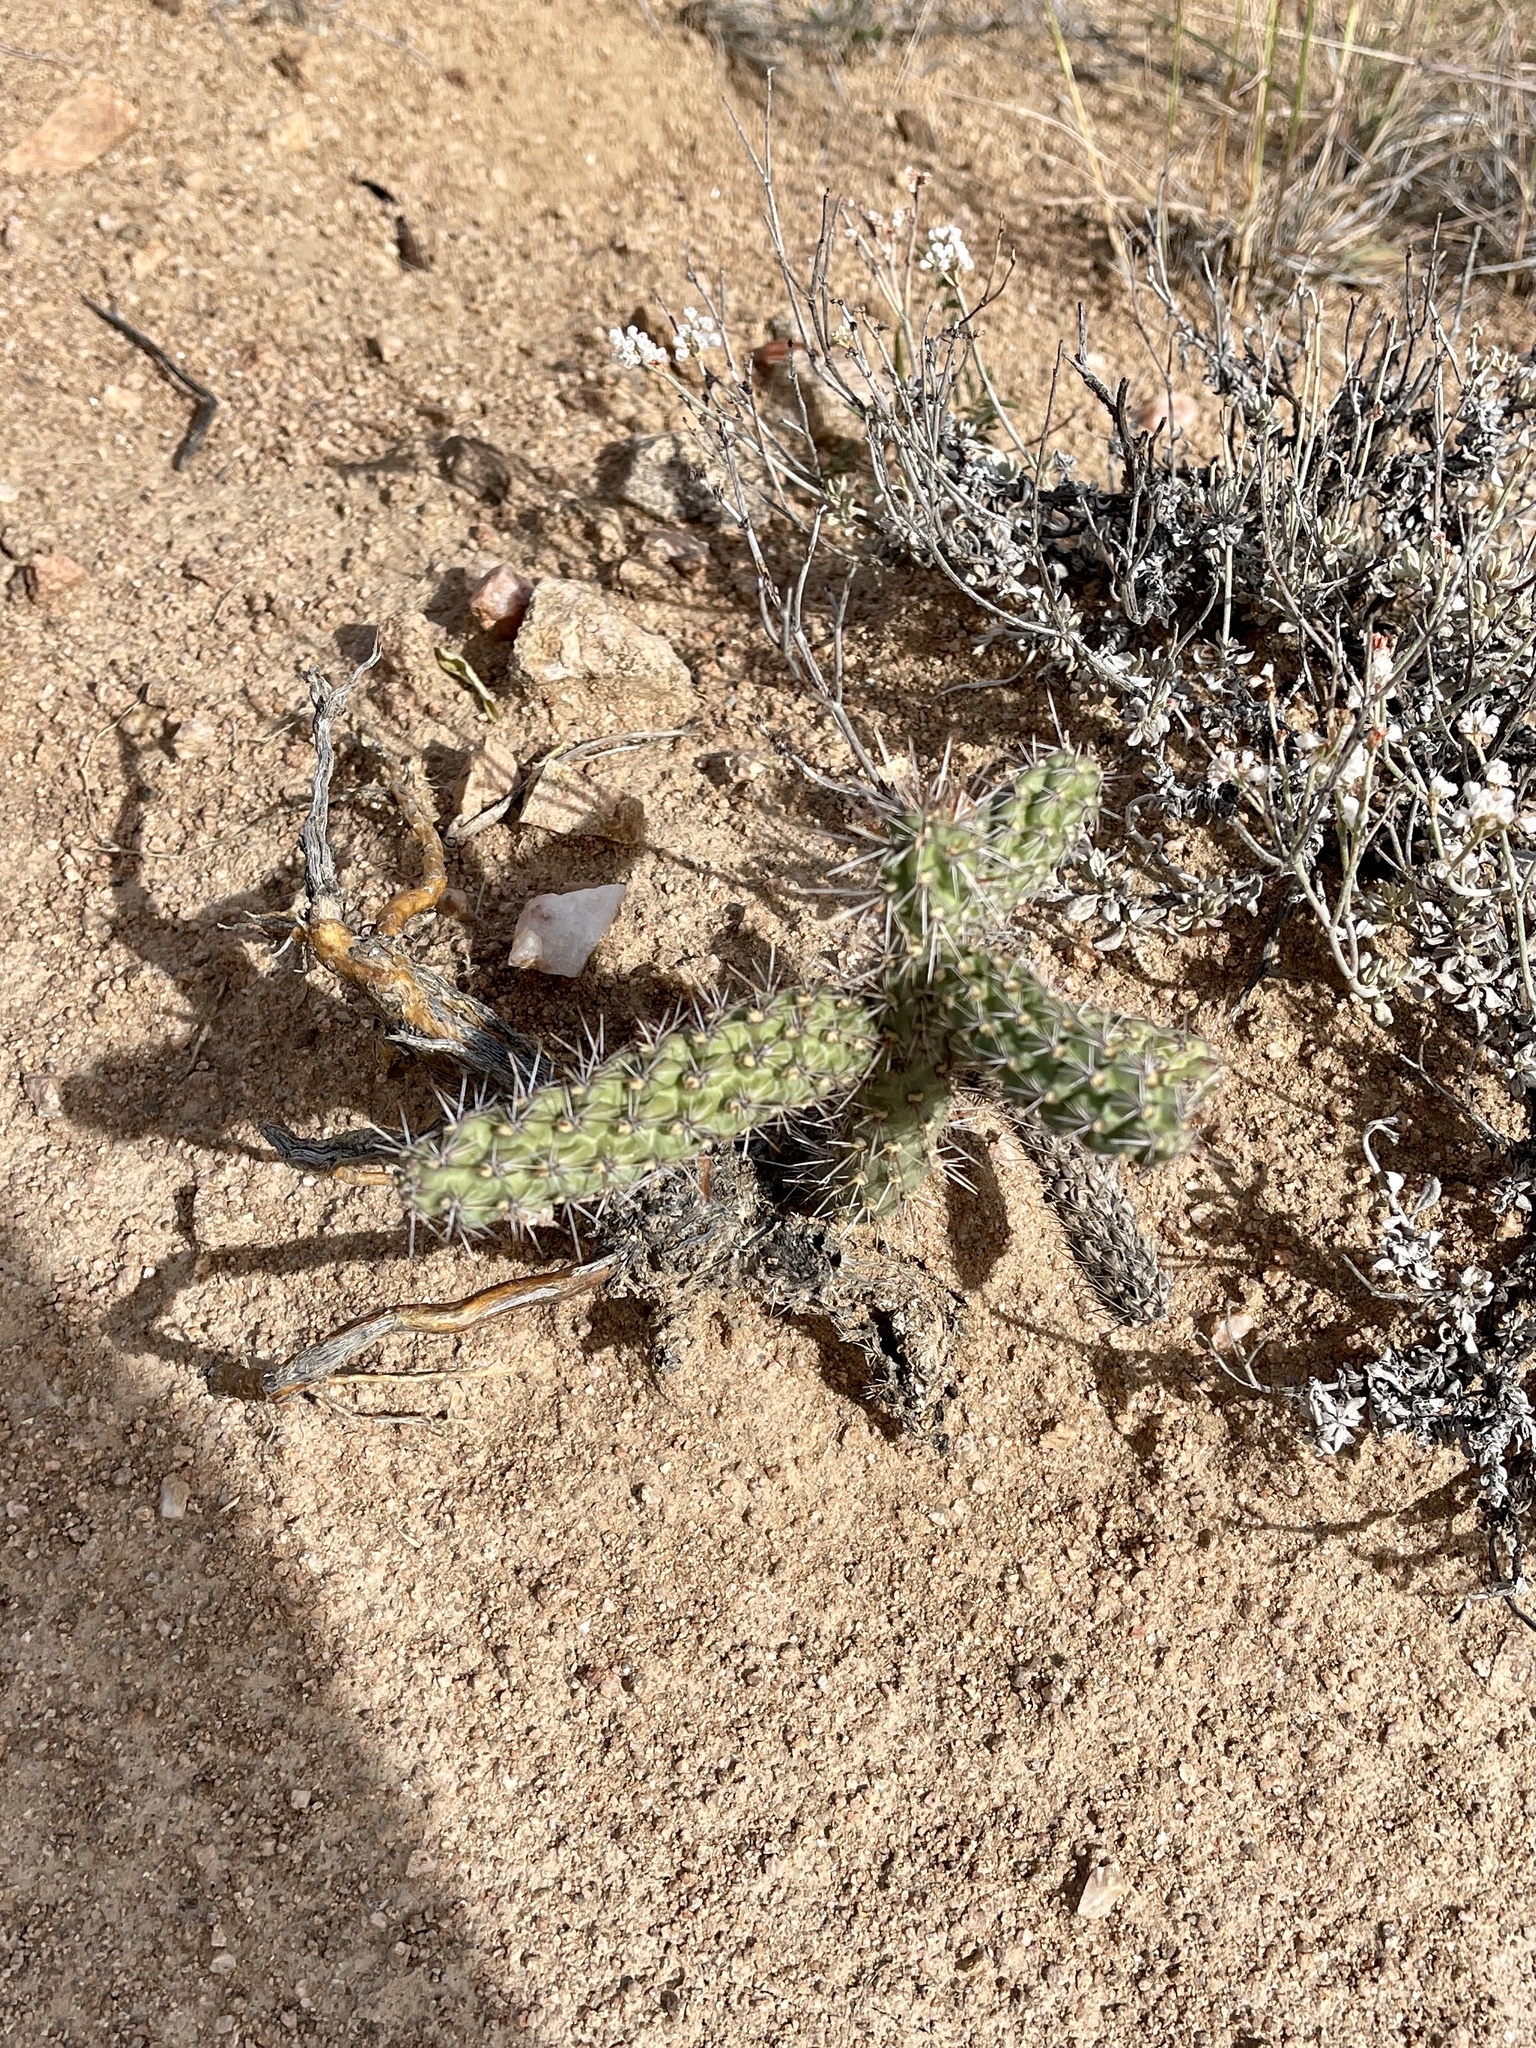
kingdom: Plantae
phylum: Tracheophyta
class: Magnoliopsida
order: Caryophyllales
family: Cactaceae
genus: Cylindropuntia
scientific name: Cylindropuntia imbricata
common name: Candelabrum cactus
